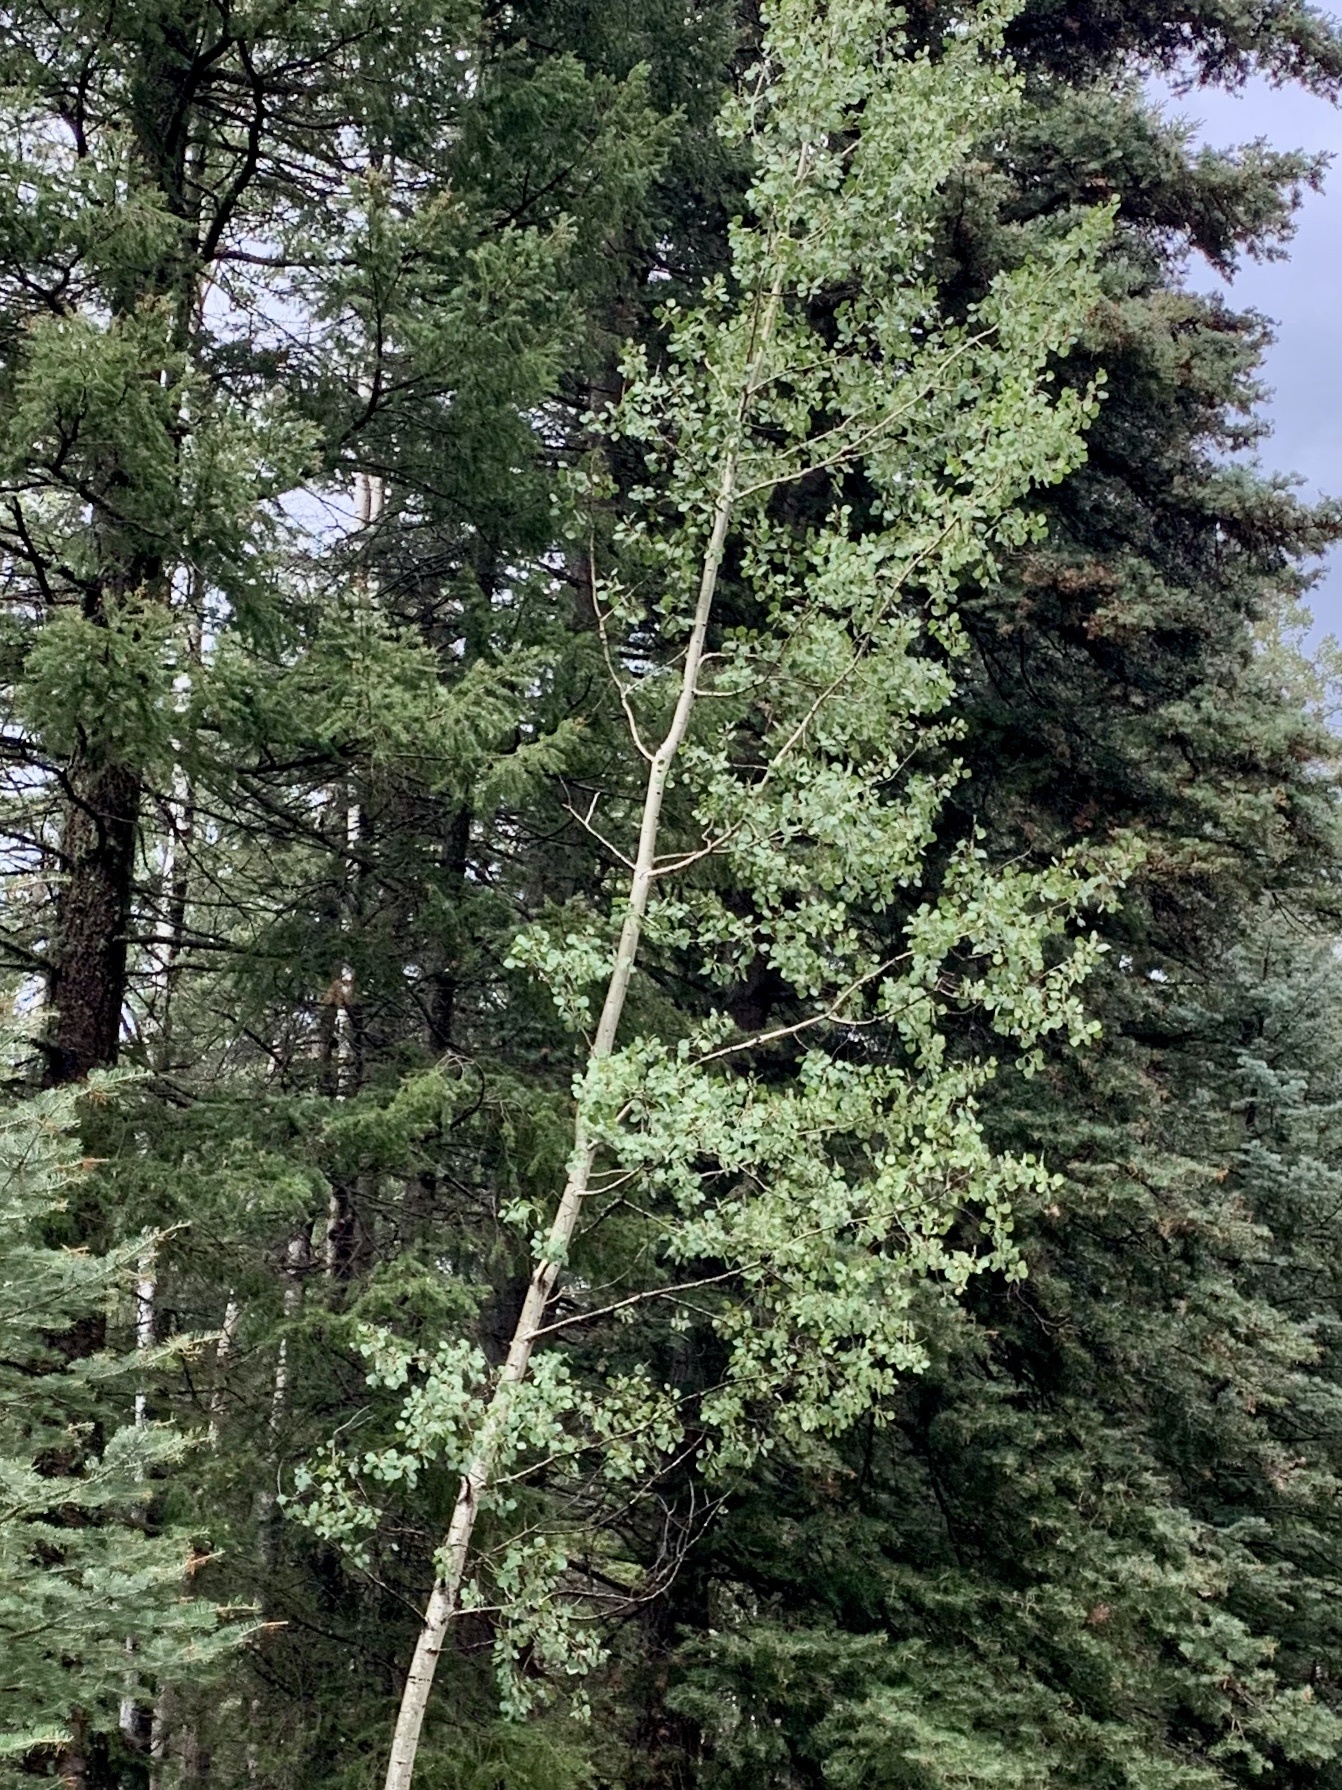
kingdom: Plantae
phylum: Tracheophyta
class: Magnoliopsida
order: Malpighiales
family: Salicaceae
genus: Populus
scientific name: Populus tremuloides
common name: Quaking aspen
